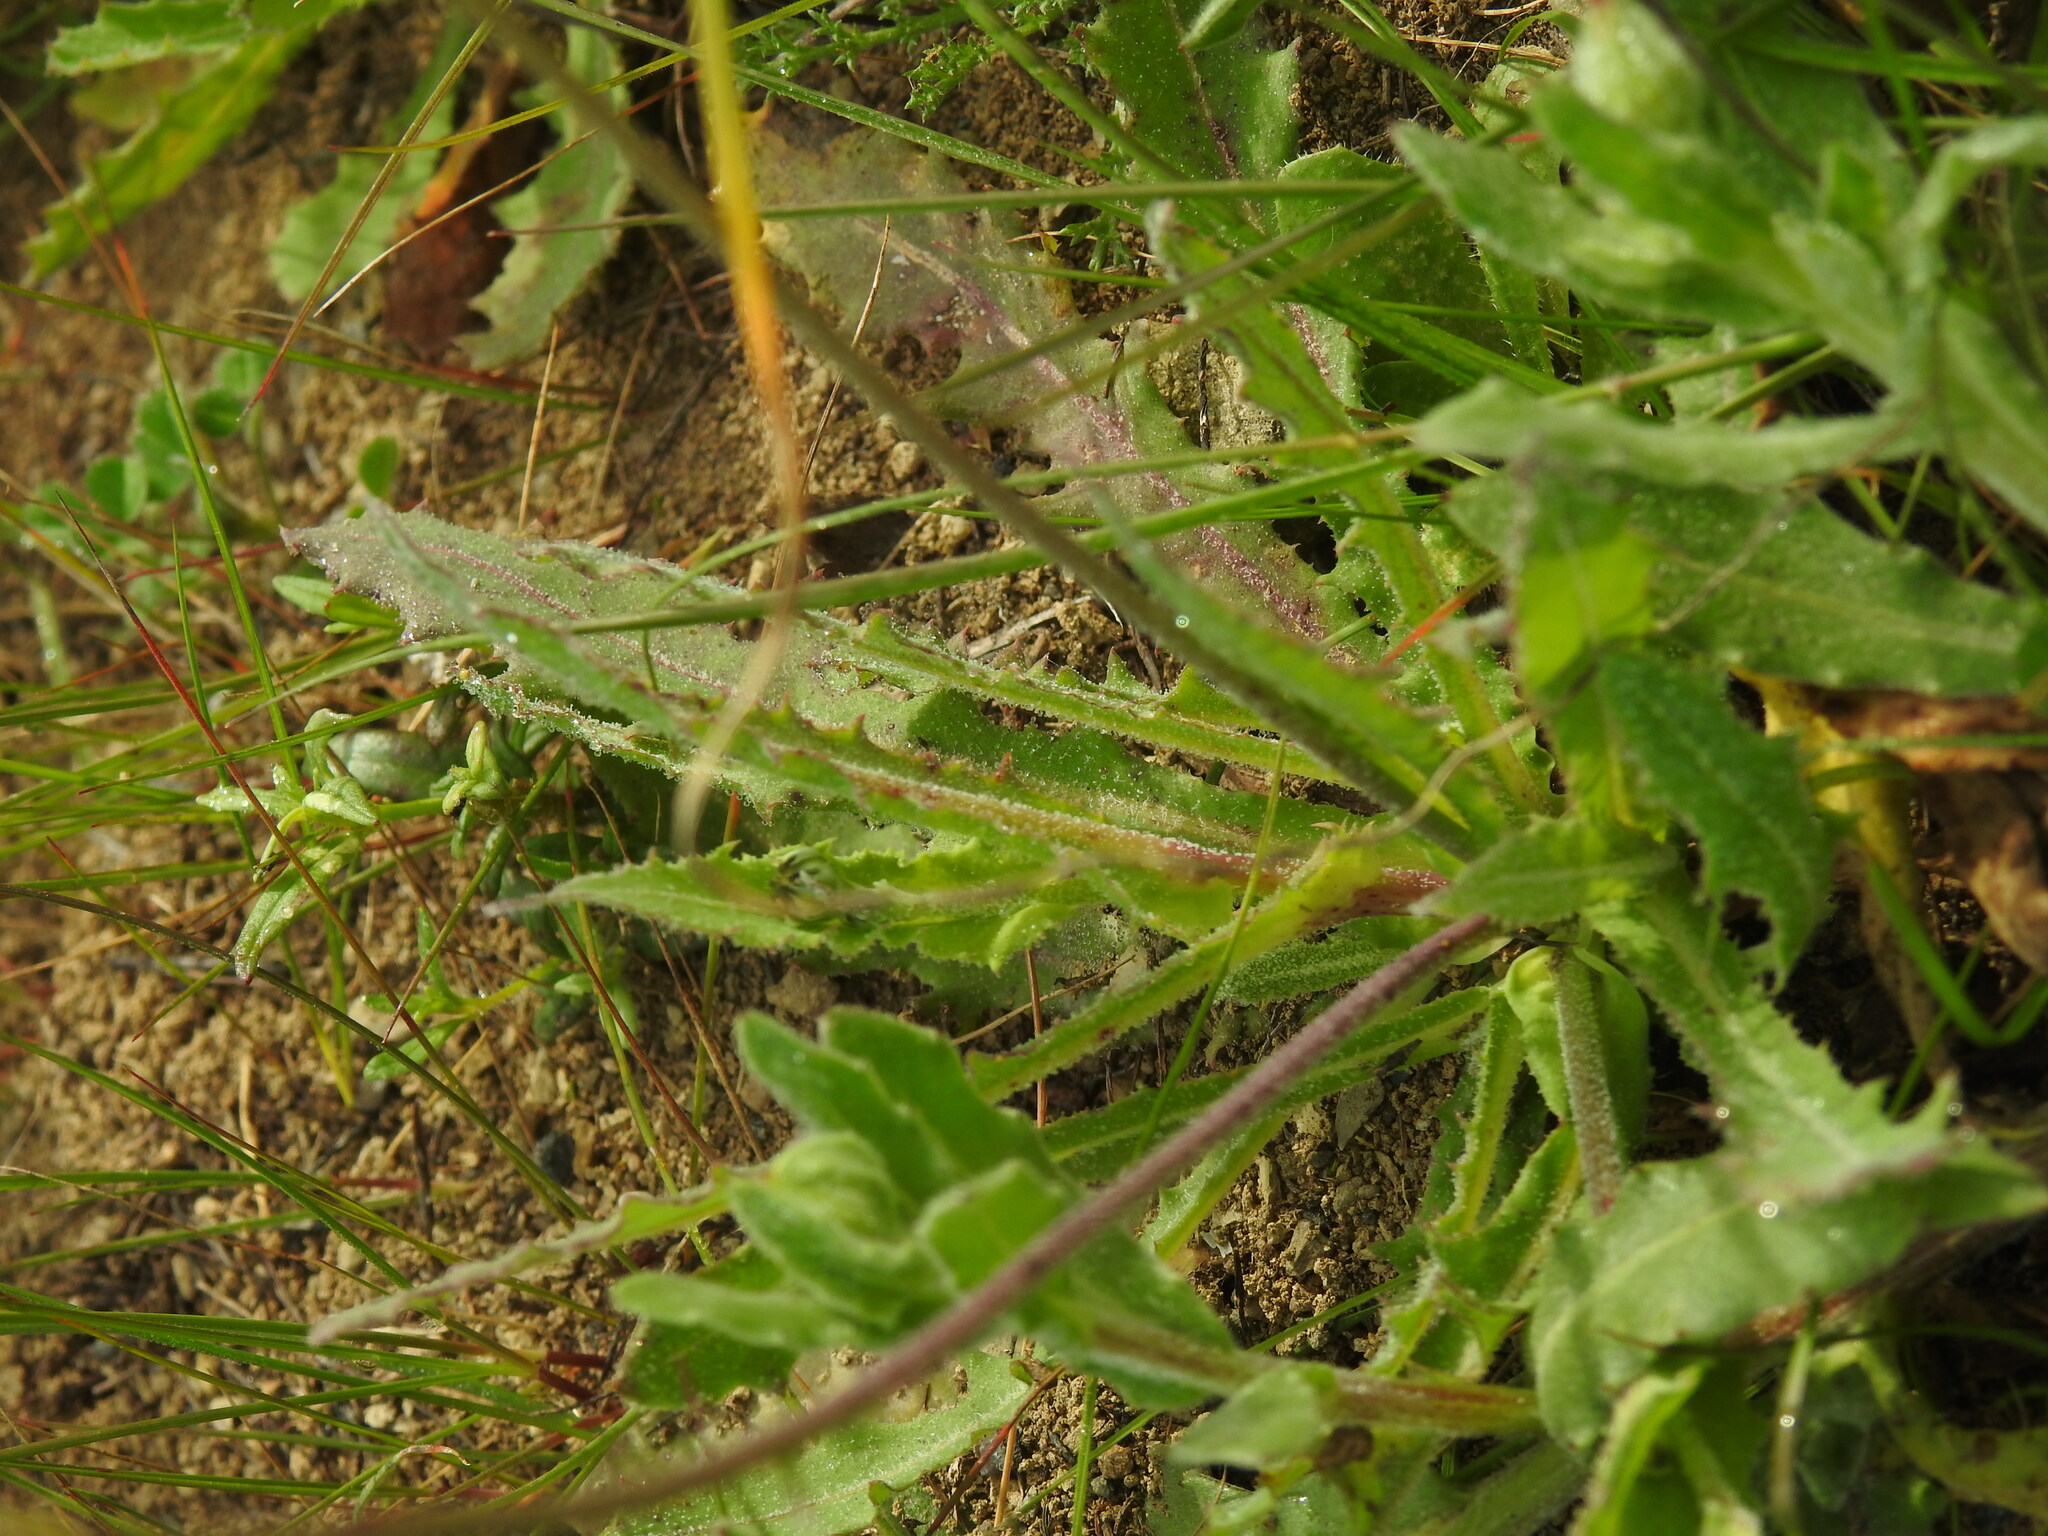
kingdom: Plantae
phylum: Tracheophyta
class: Magnoliopsida
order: Asterales
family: Asteraceae
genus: Reichardia
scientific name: Reichardia intermedia
